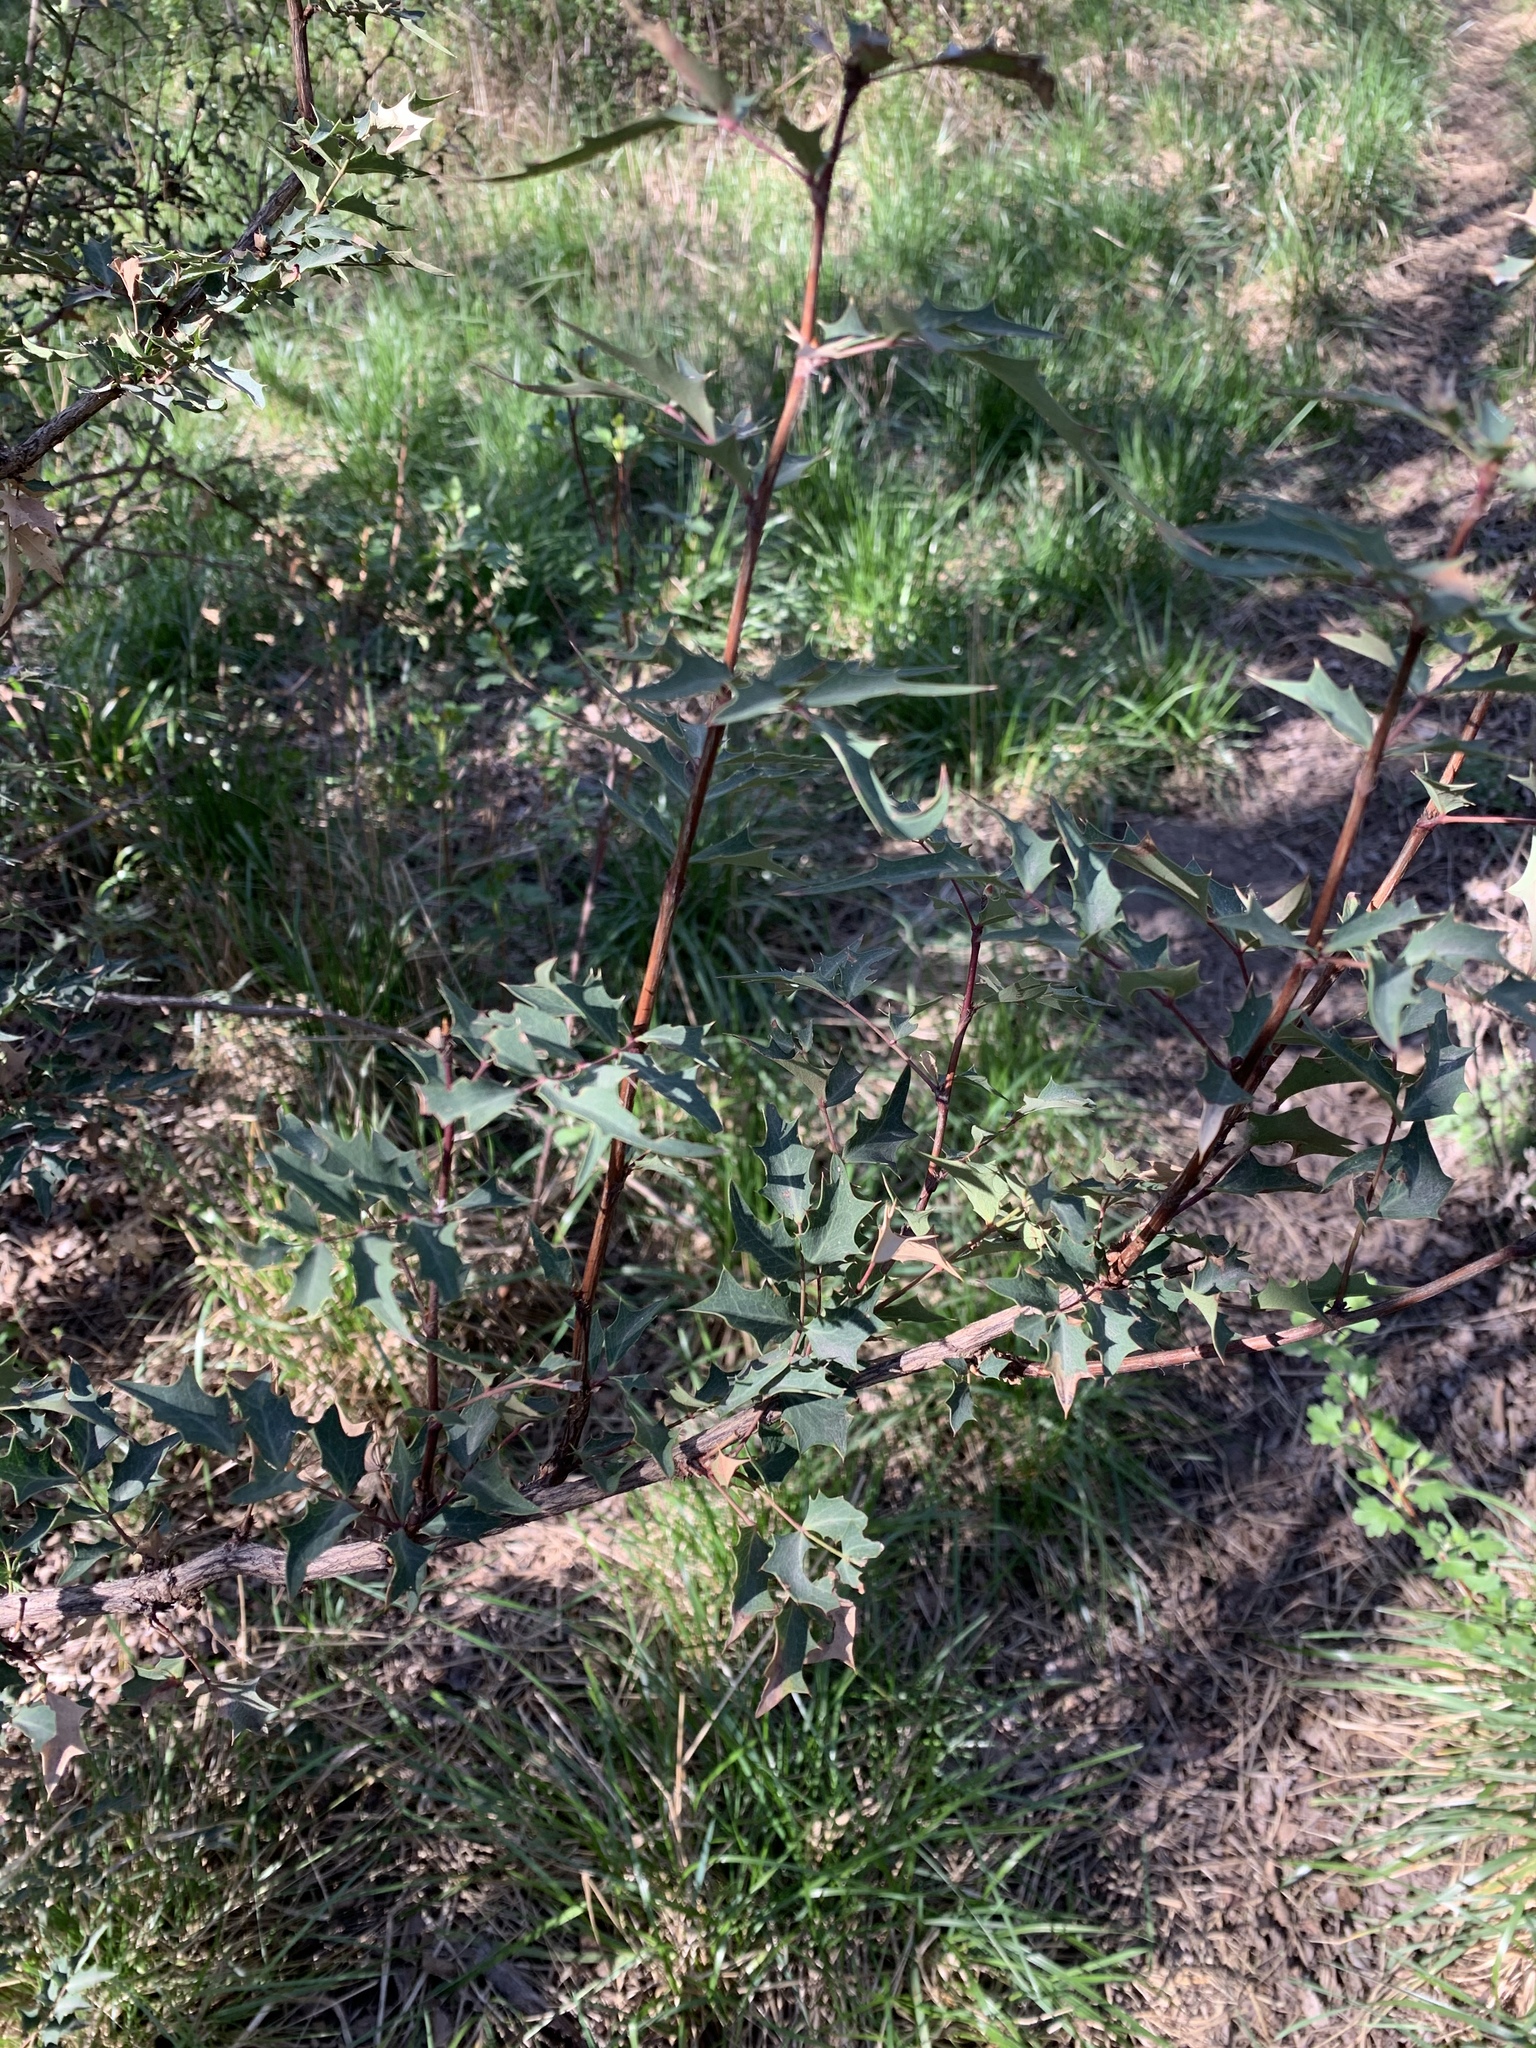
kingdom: Plantae
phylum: Tracheophyta
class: Magnoliopsida
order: Ranunculales
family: Berberidaceae
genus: Alloberberis
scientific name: Alloberberis haematocarpa
